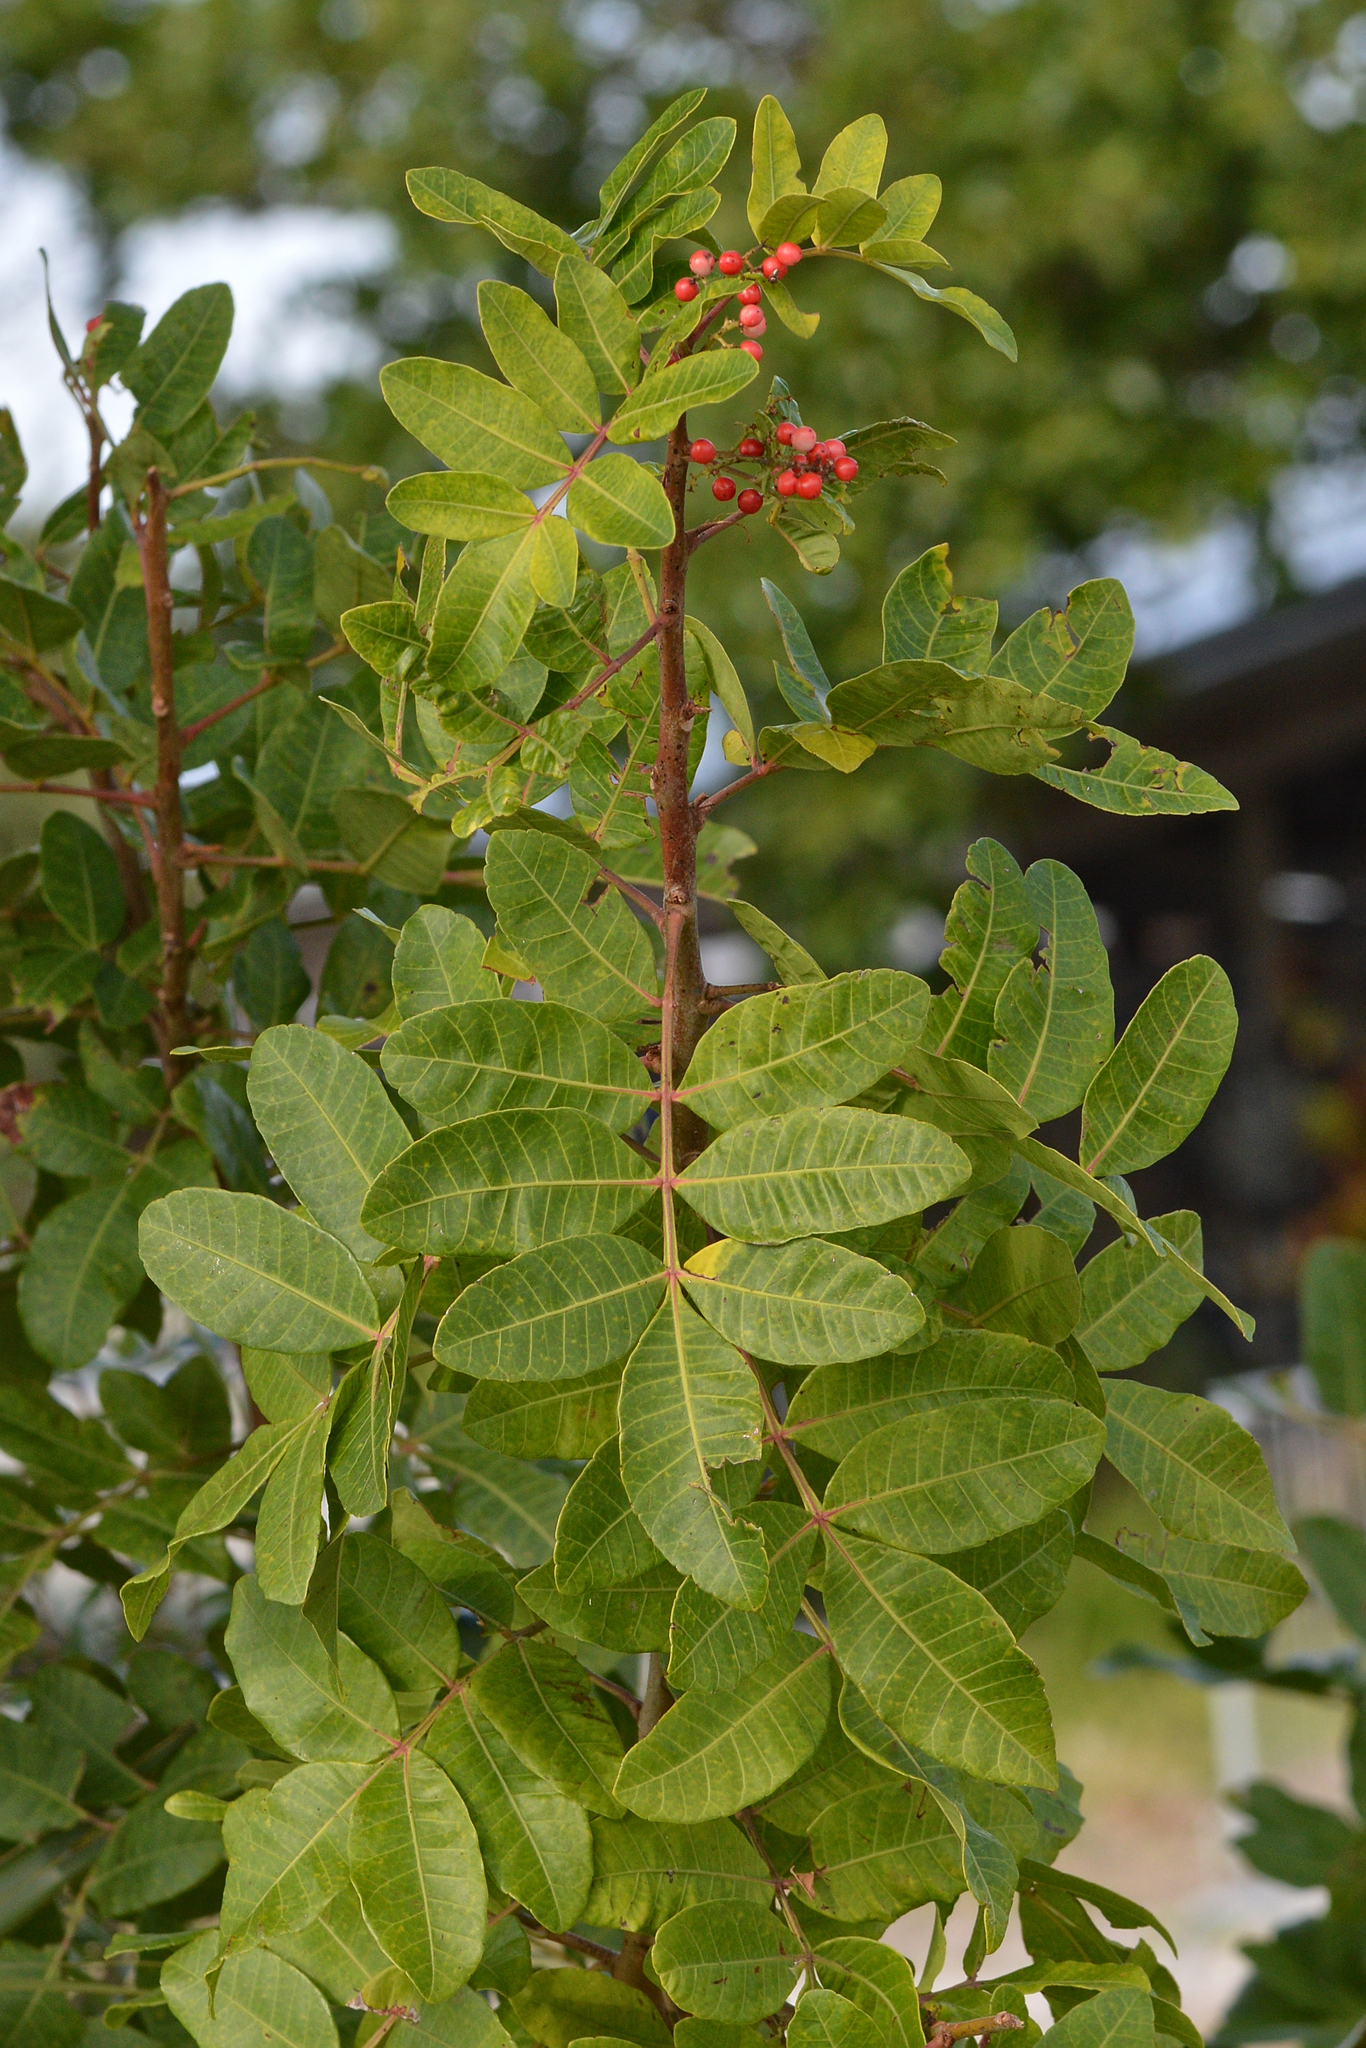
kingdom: Plantae
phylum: Tracheophyta
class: Magnoliopsida
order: Sapindales
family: Anacardiaceae
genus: Schinus
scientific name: Schinus terebinthifolia
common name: Brazilian peppertree
